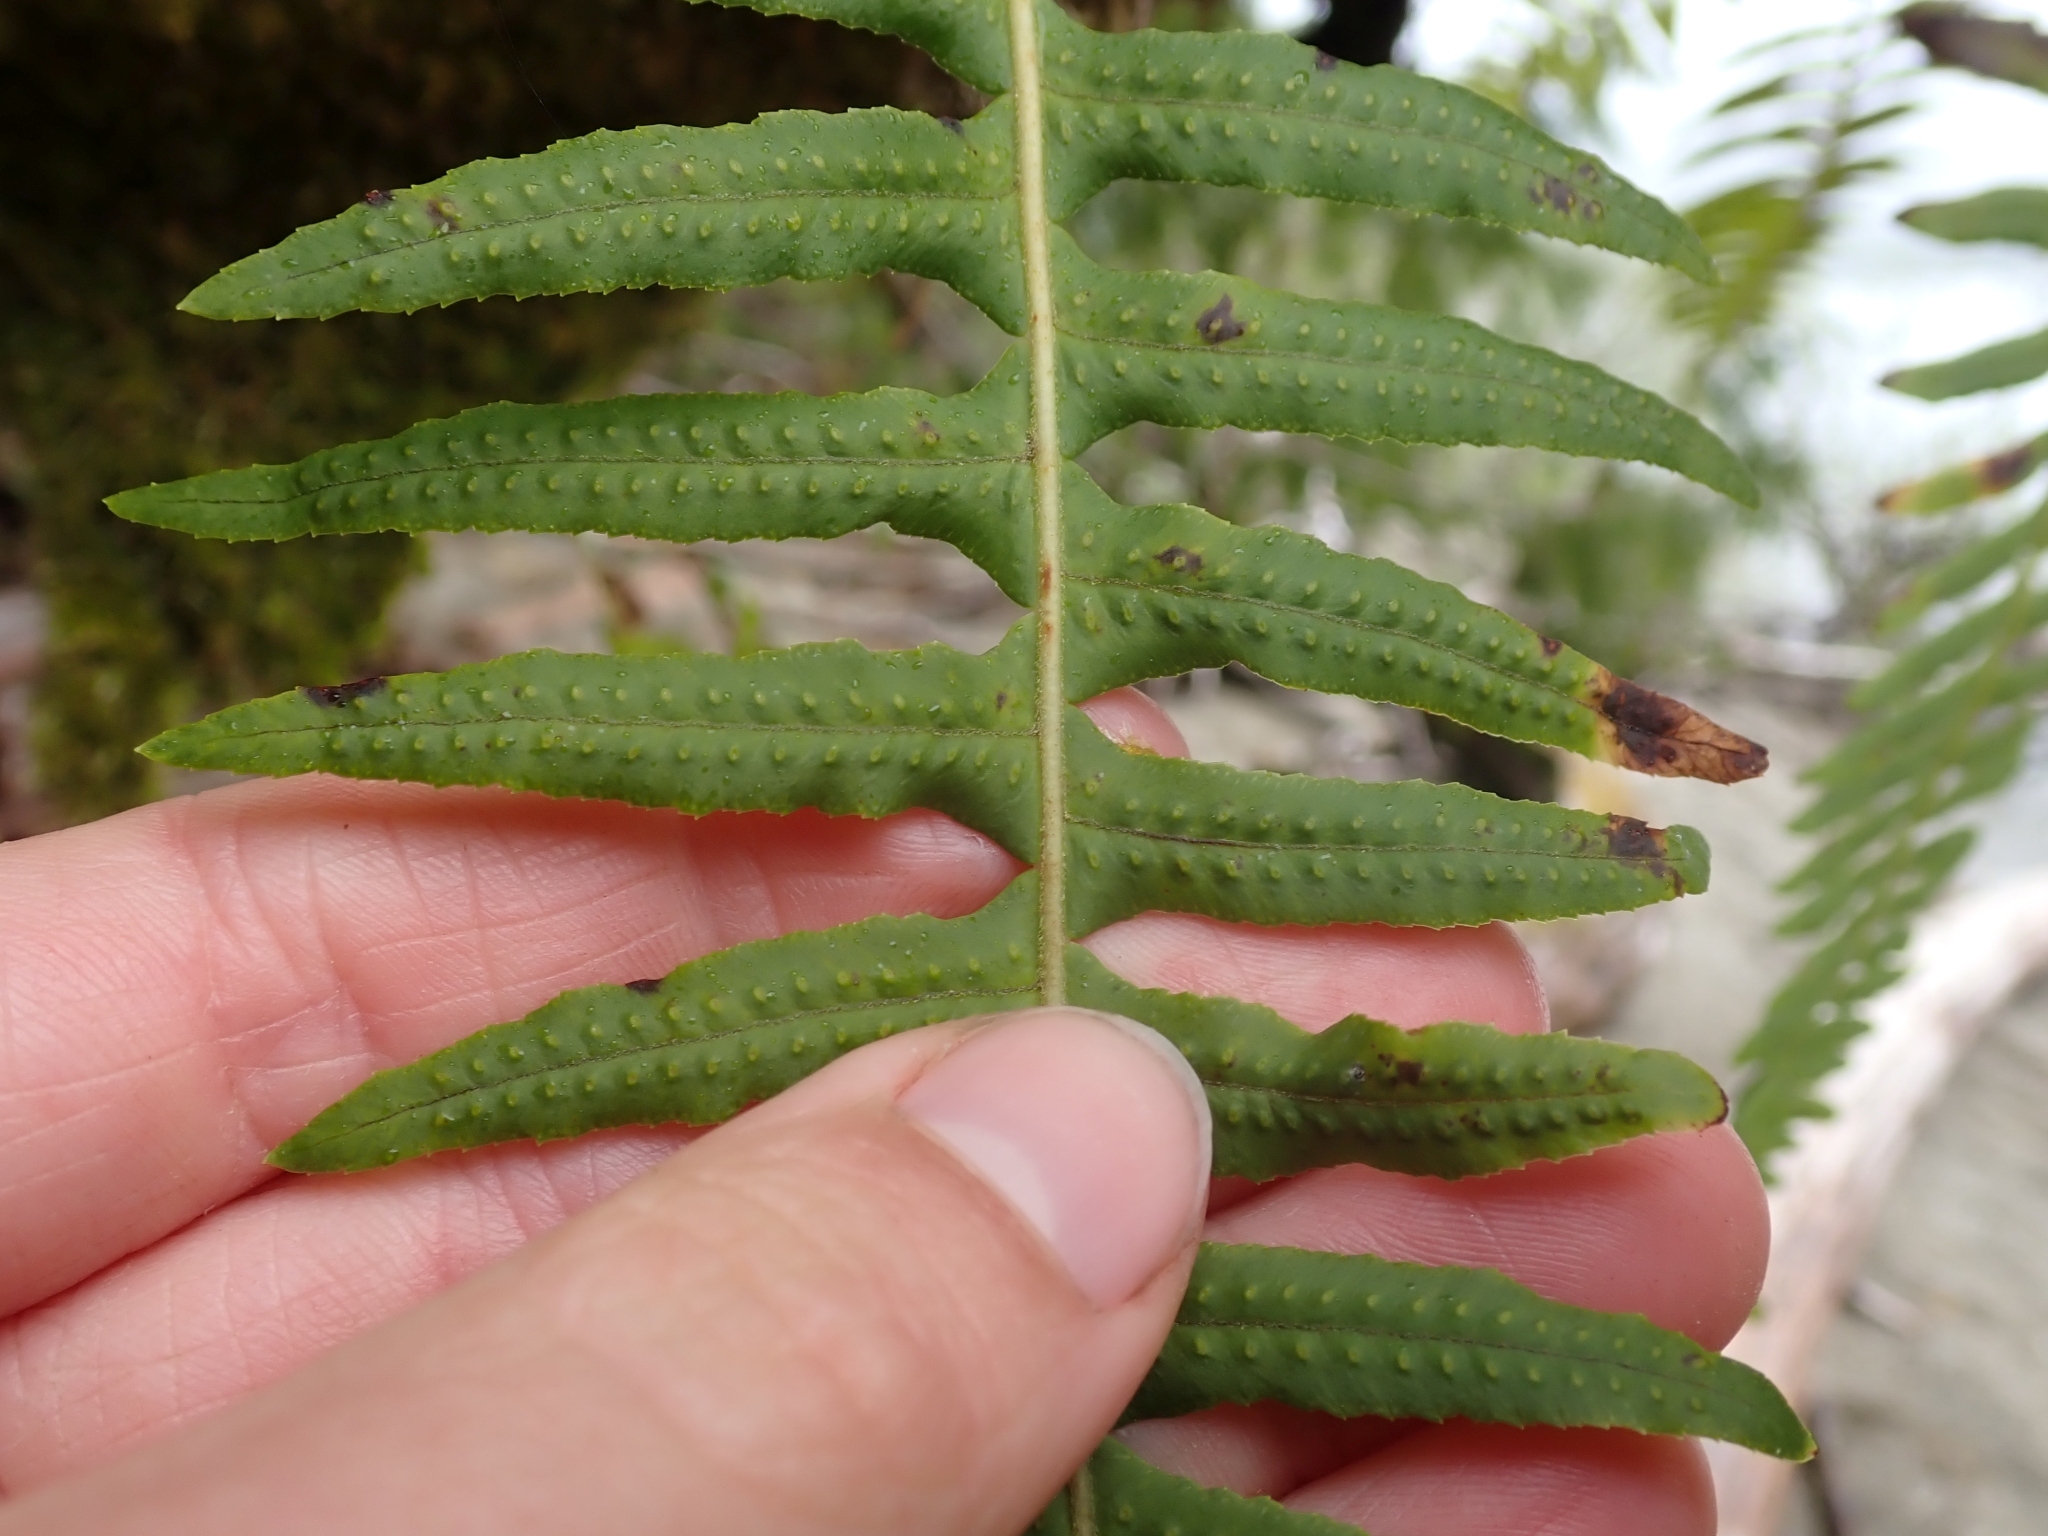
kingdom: Plantae
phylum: Tracheophyta
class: Polypodiopsida
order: Polypodiales
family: Polypodiaceae
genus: Polypodium
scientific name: Polypodium glycyrrhiza
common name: Licorice fern
